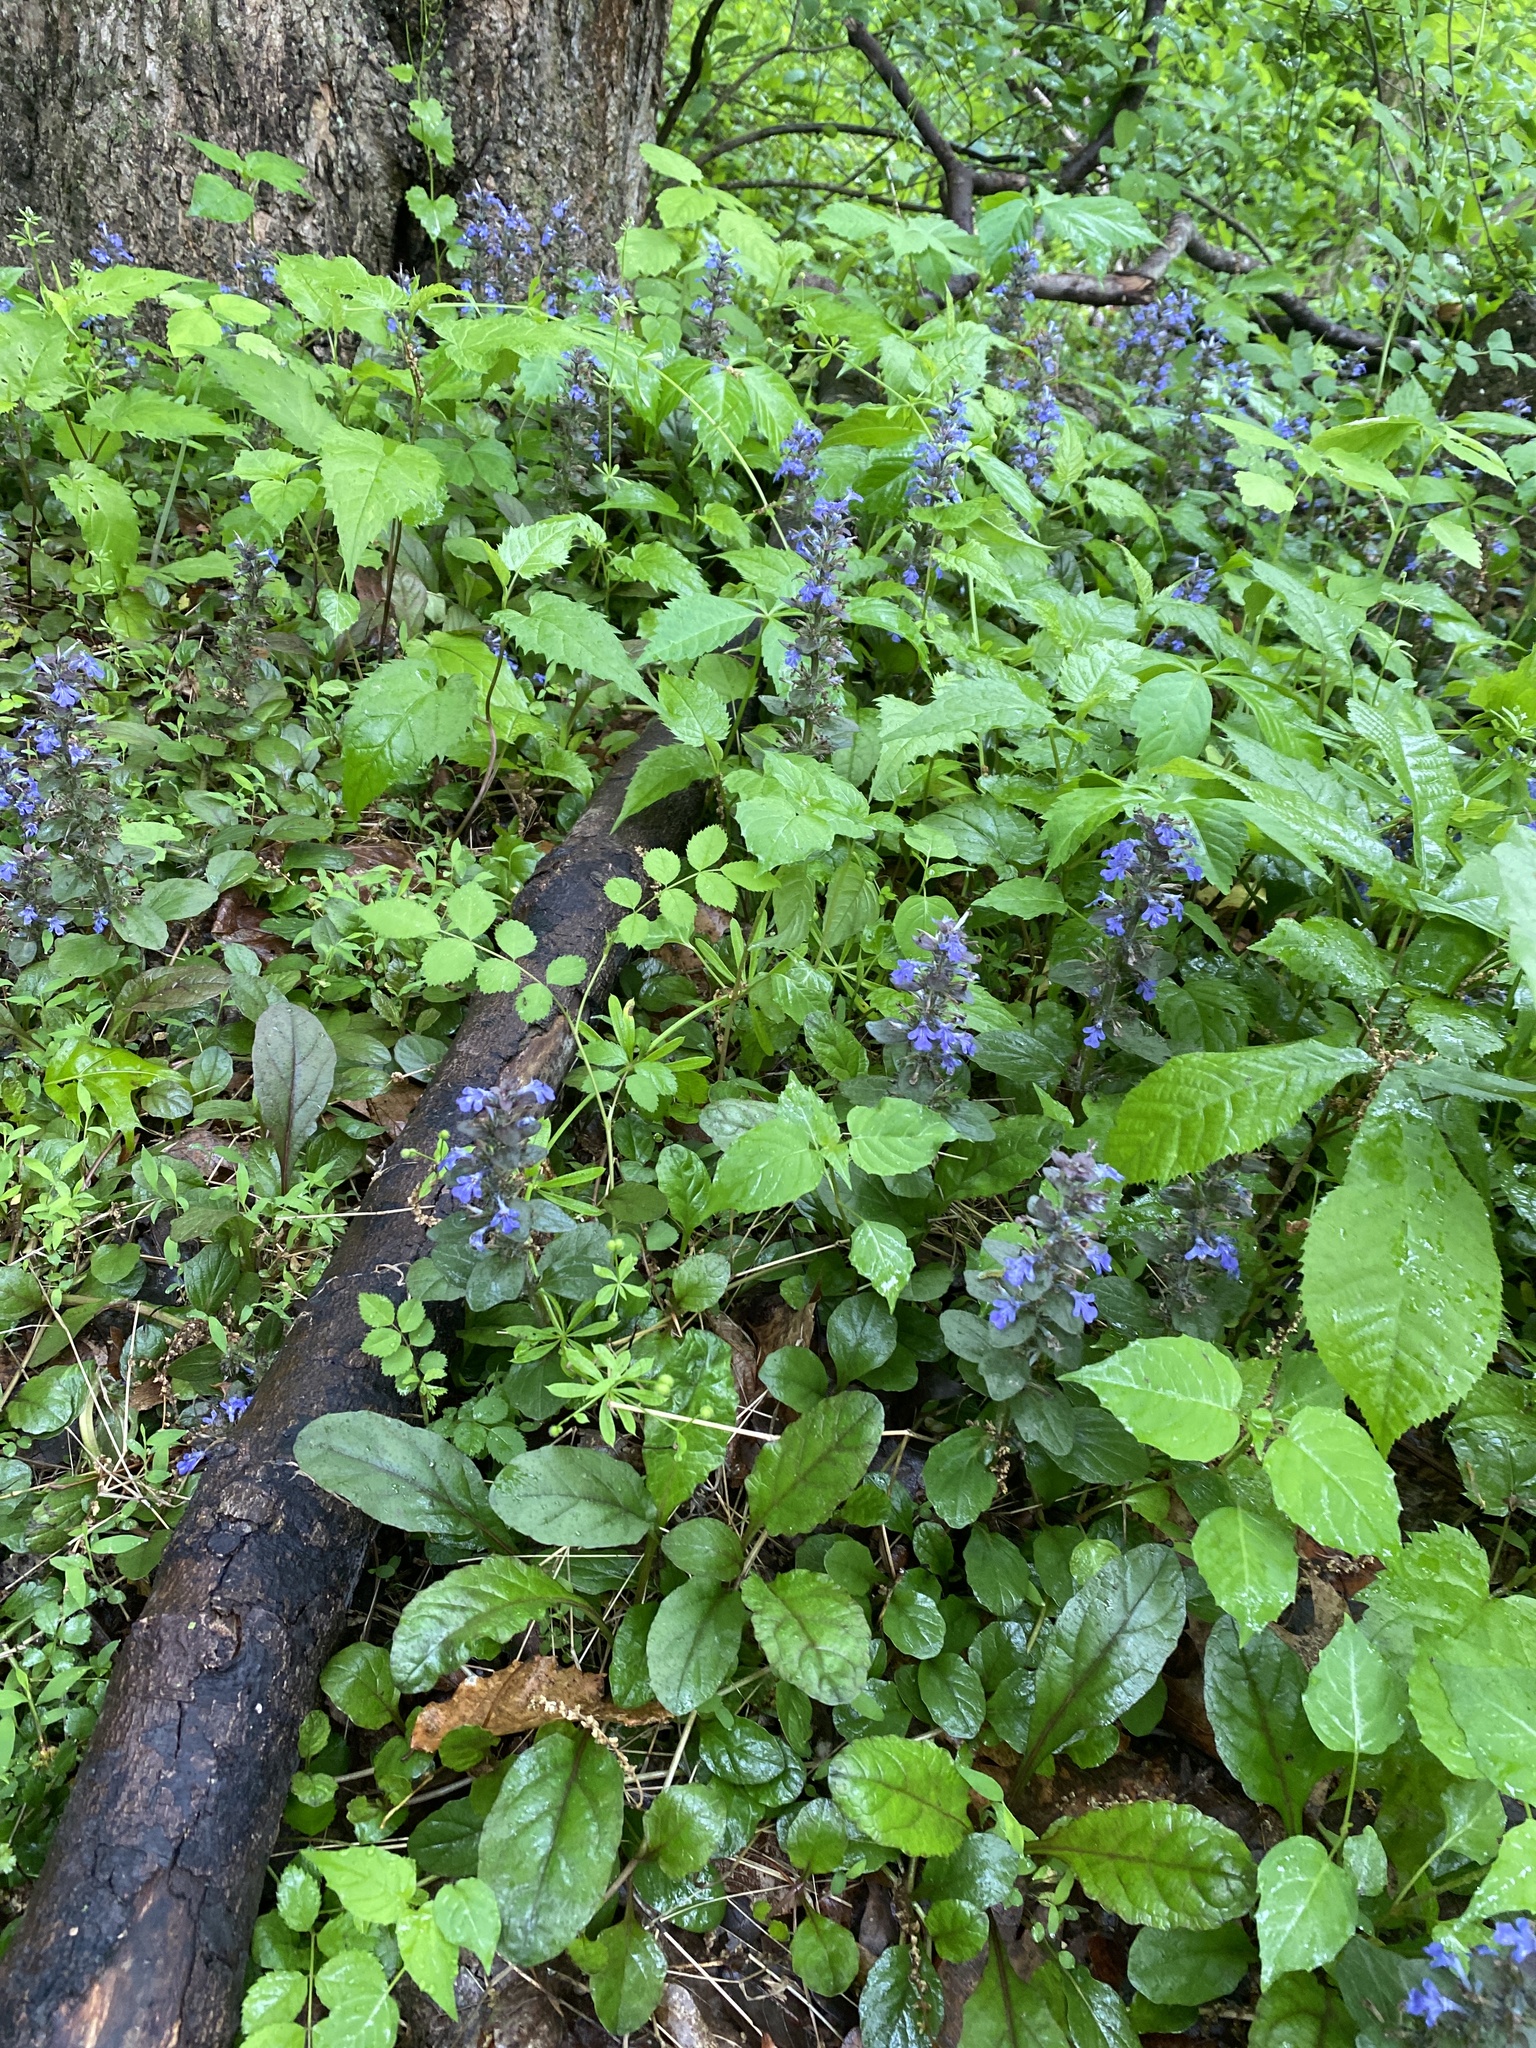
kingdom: Plantae
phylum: Tracheophyta
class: Magnoliopsida
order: Lamiales
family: Lamiaceae
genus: Ajuga
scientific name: Ajuga reptans
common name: Bugle
